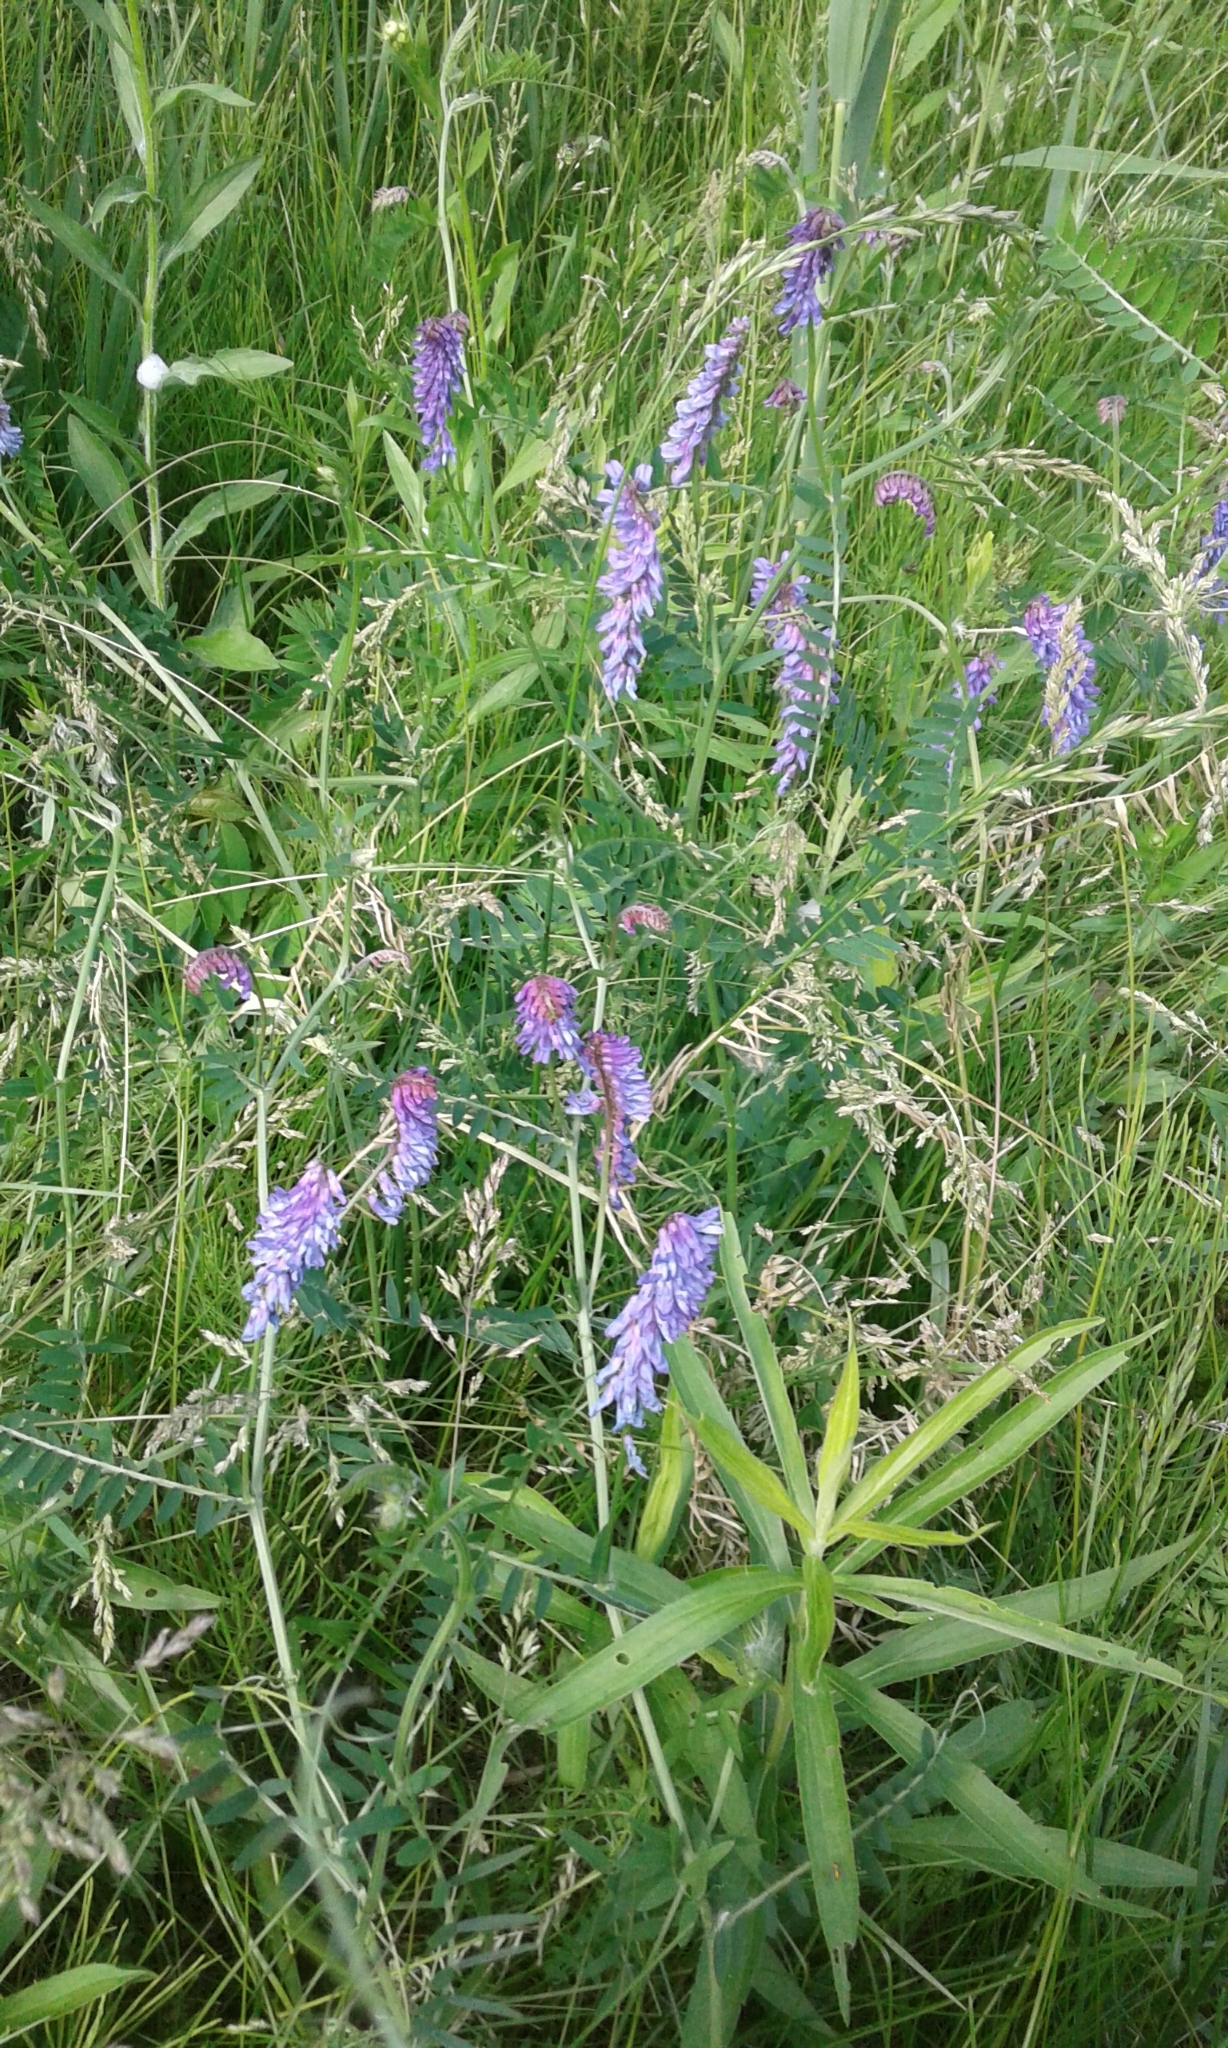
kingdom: Plantae
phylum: Tracheophyta
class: Magnoliopsida
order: Fabales
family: Fabaceae
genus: Vicia
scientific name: Vicia cracca
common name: Bird vetch
